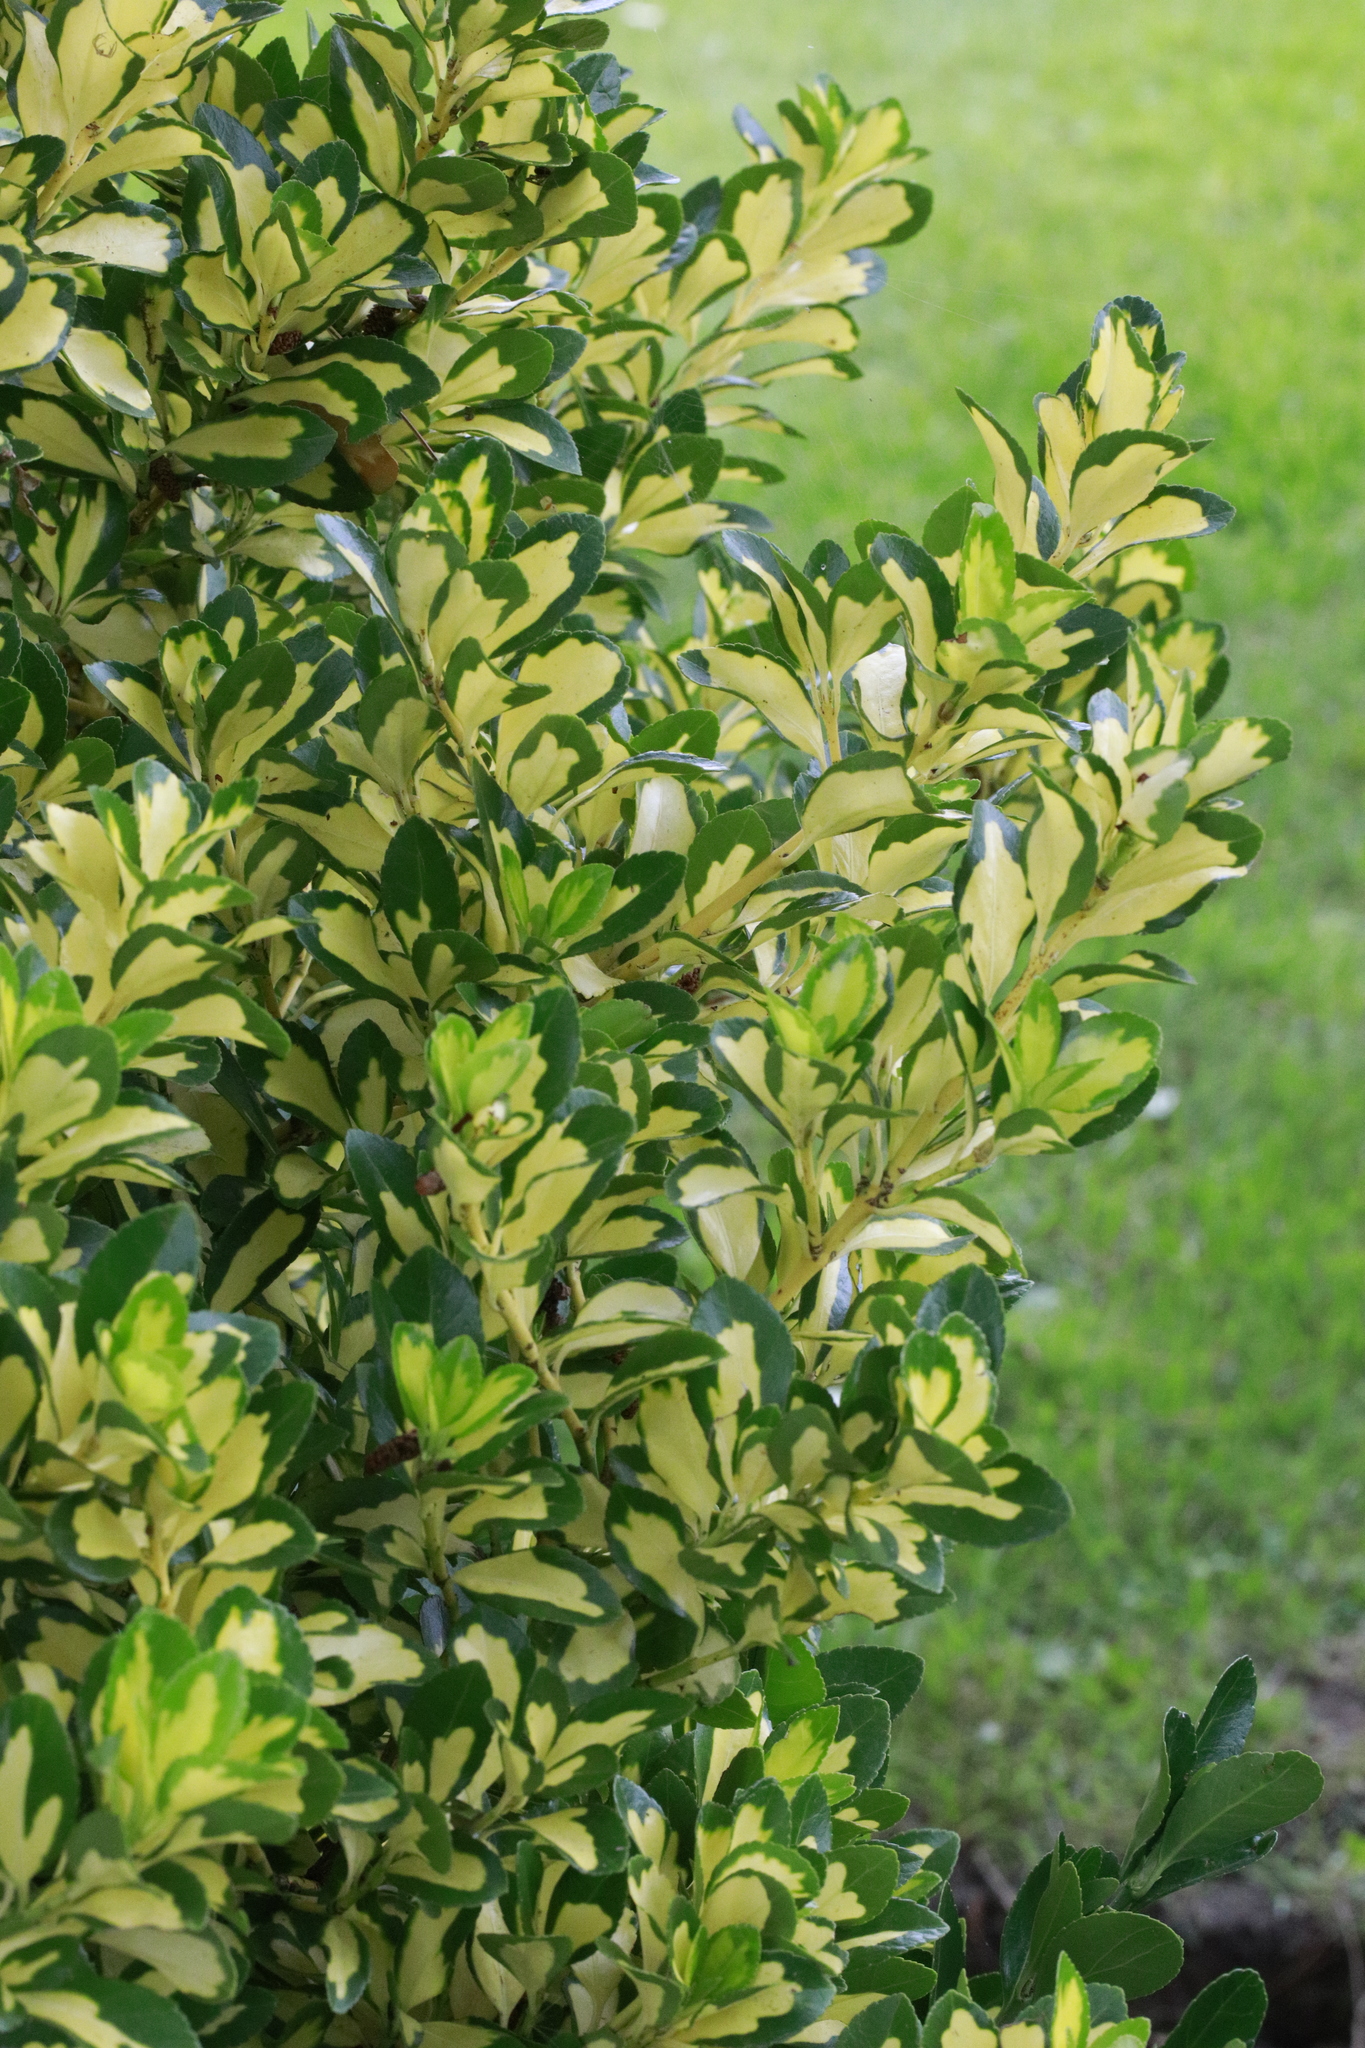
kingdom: Plantae
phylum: Tracheophyta
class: Magnoliopsida
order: Celastrales
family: Celastraceae
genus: Euonymus
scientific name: Euonymus japonicus
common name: Japanese spindletree
